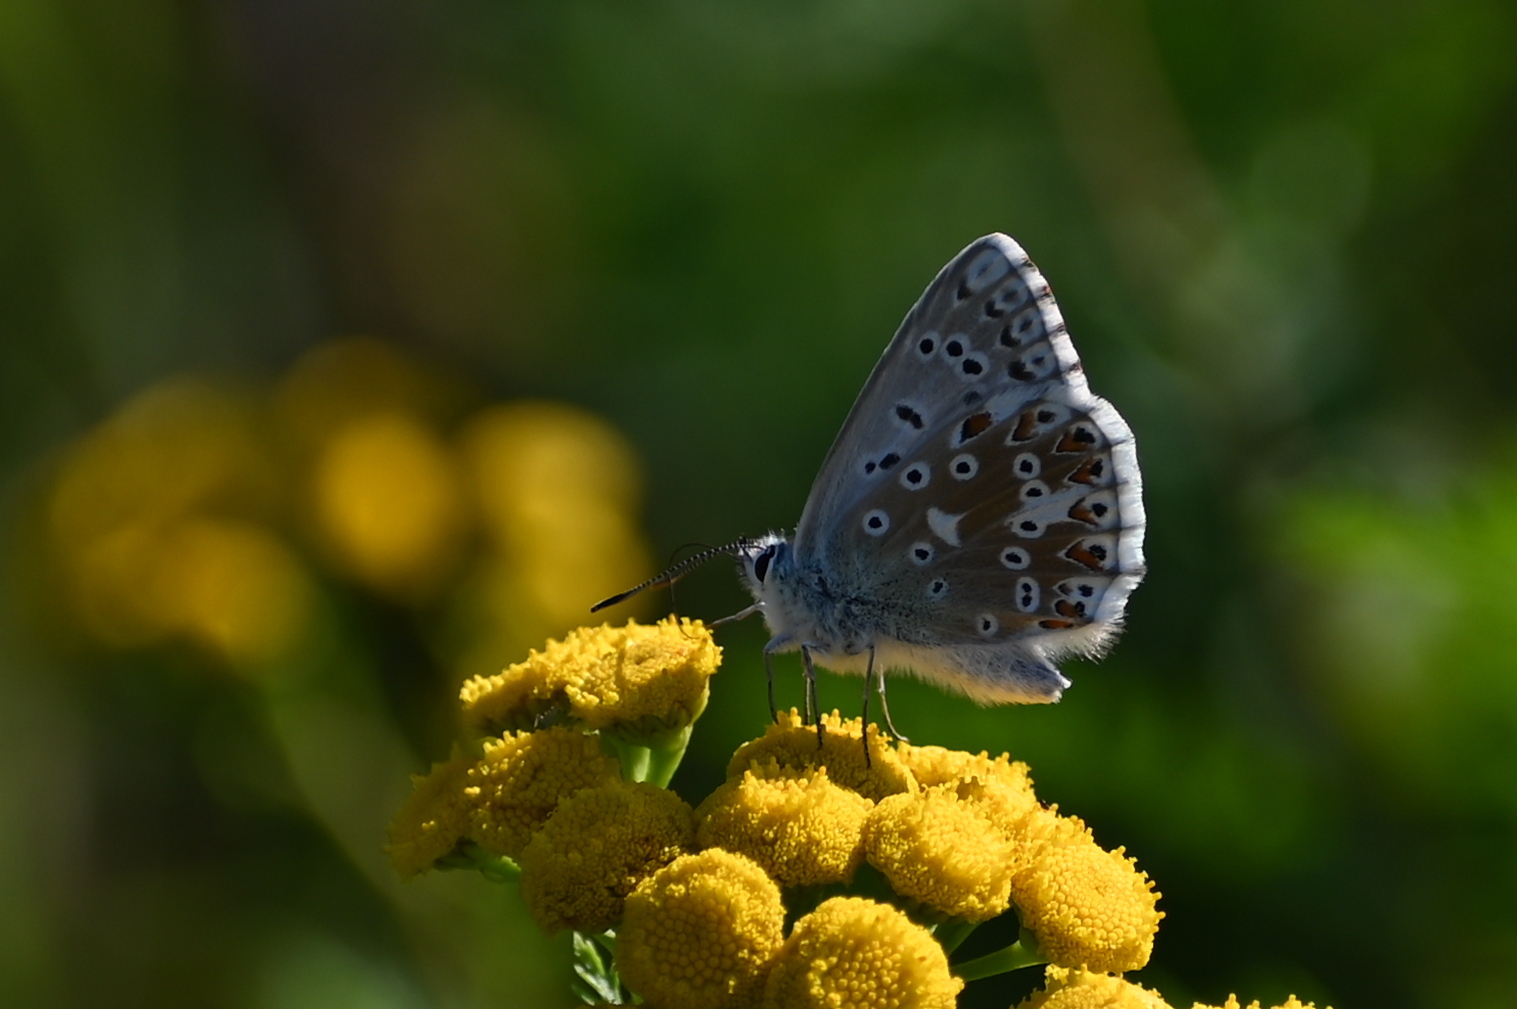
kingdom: Animalia
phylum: Arthropoda
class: Insecta
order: Lepidoptera
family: Lycaenidae
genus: Lysandra
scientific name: Lysandra coridon
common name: Chalkhill blue
